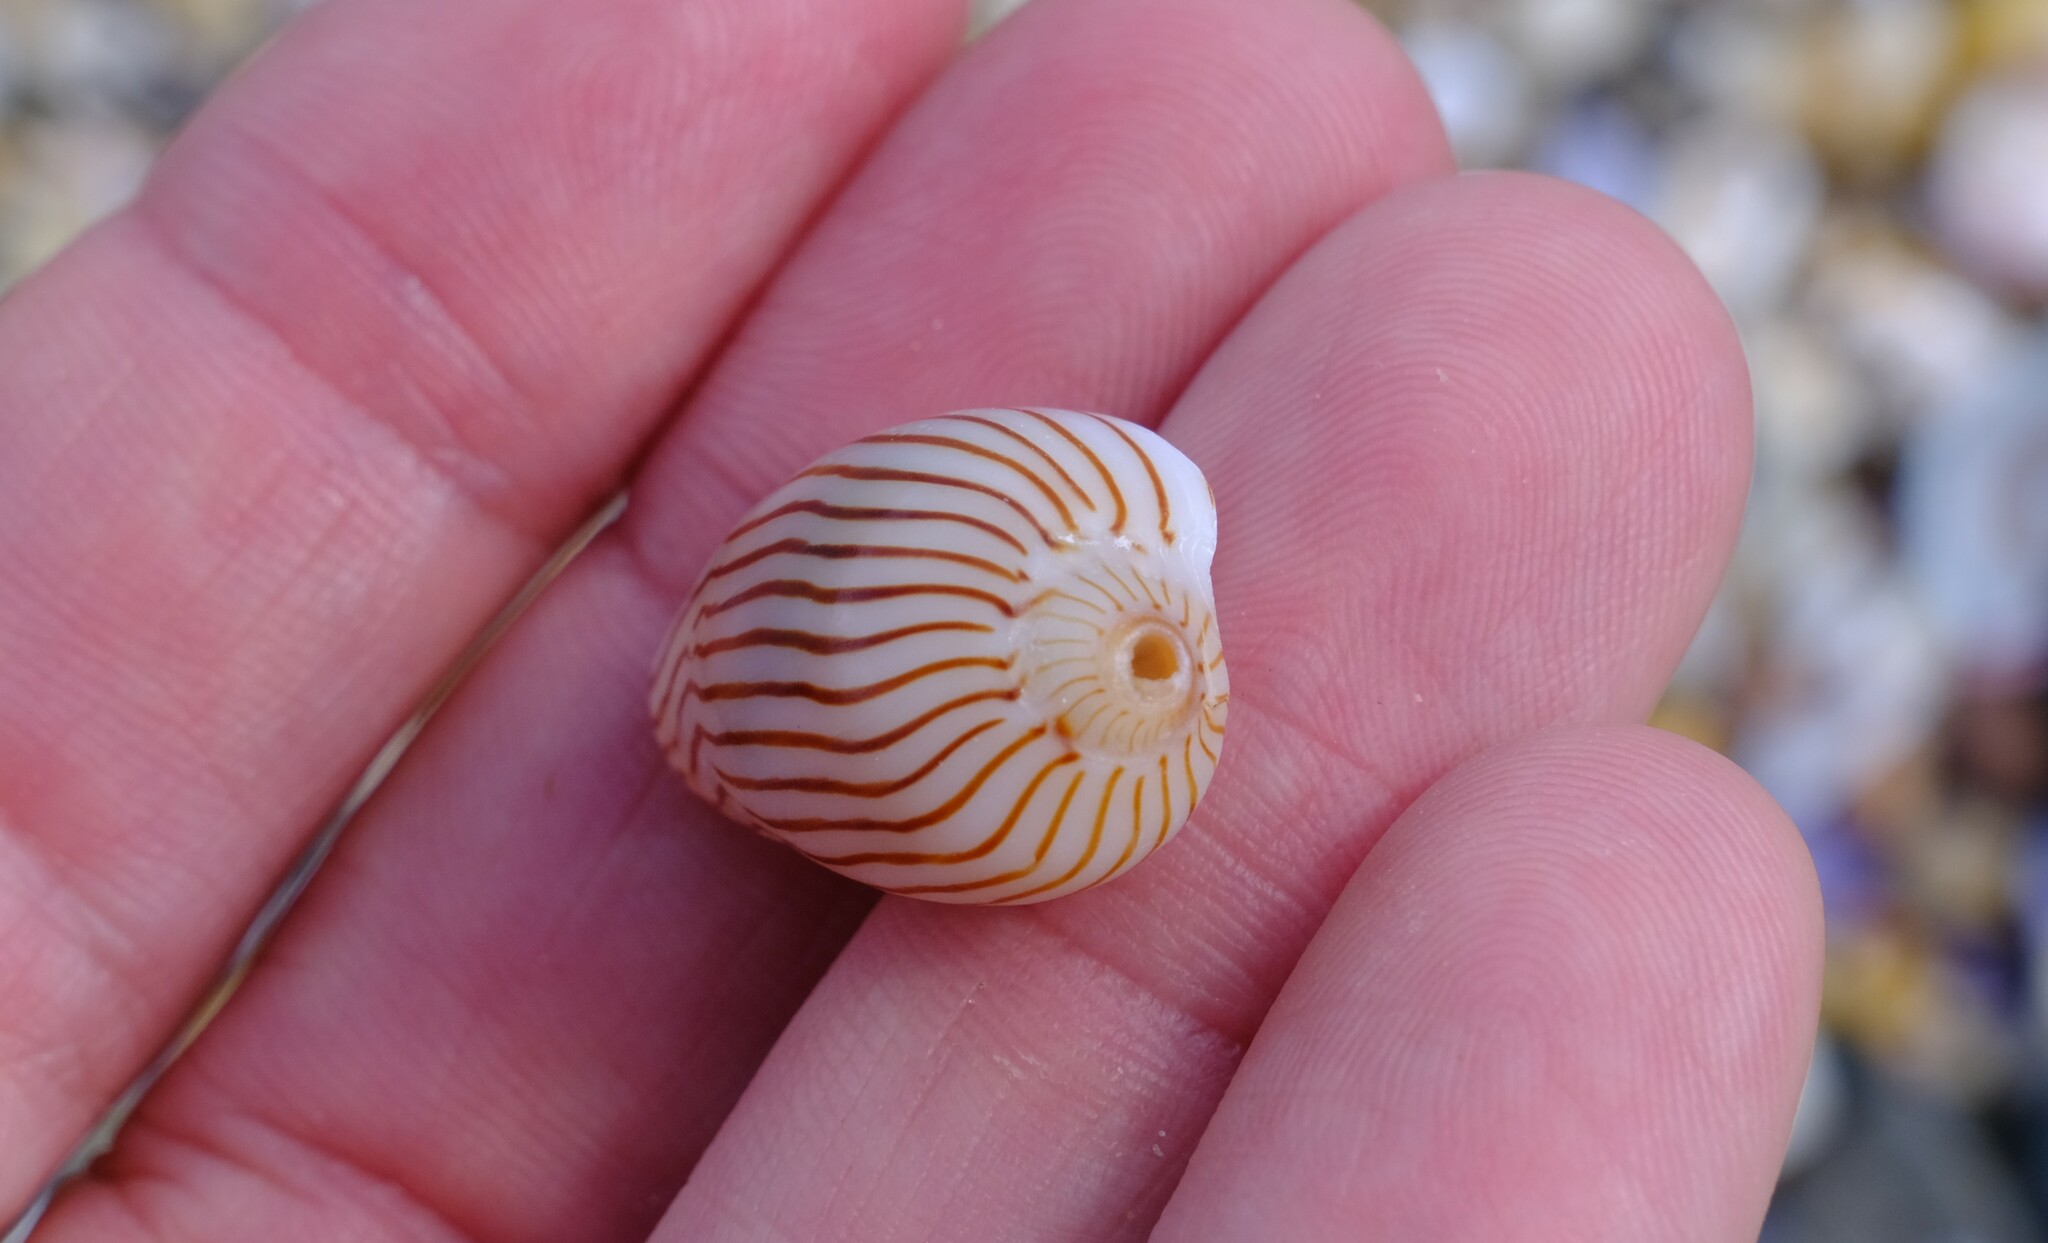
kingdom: Animalia
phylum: Mollusca
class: Gastropoda
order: Neogastropoda
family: Volutidae
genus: Amoria
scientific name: Amoria zebra
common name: Zebra volute
